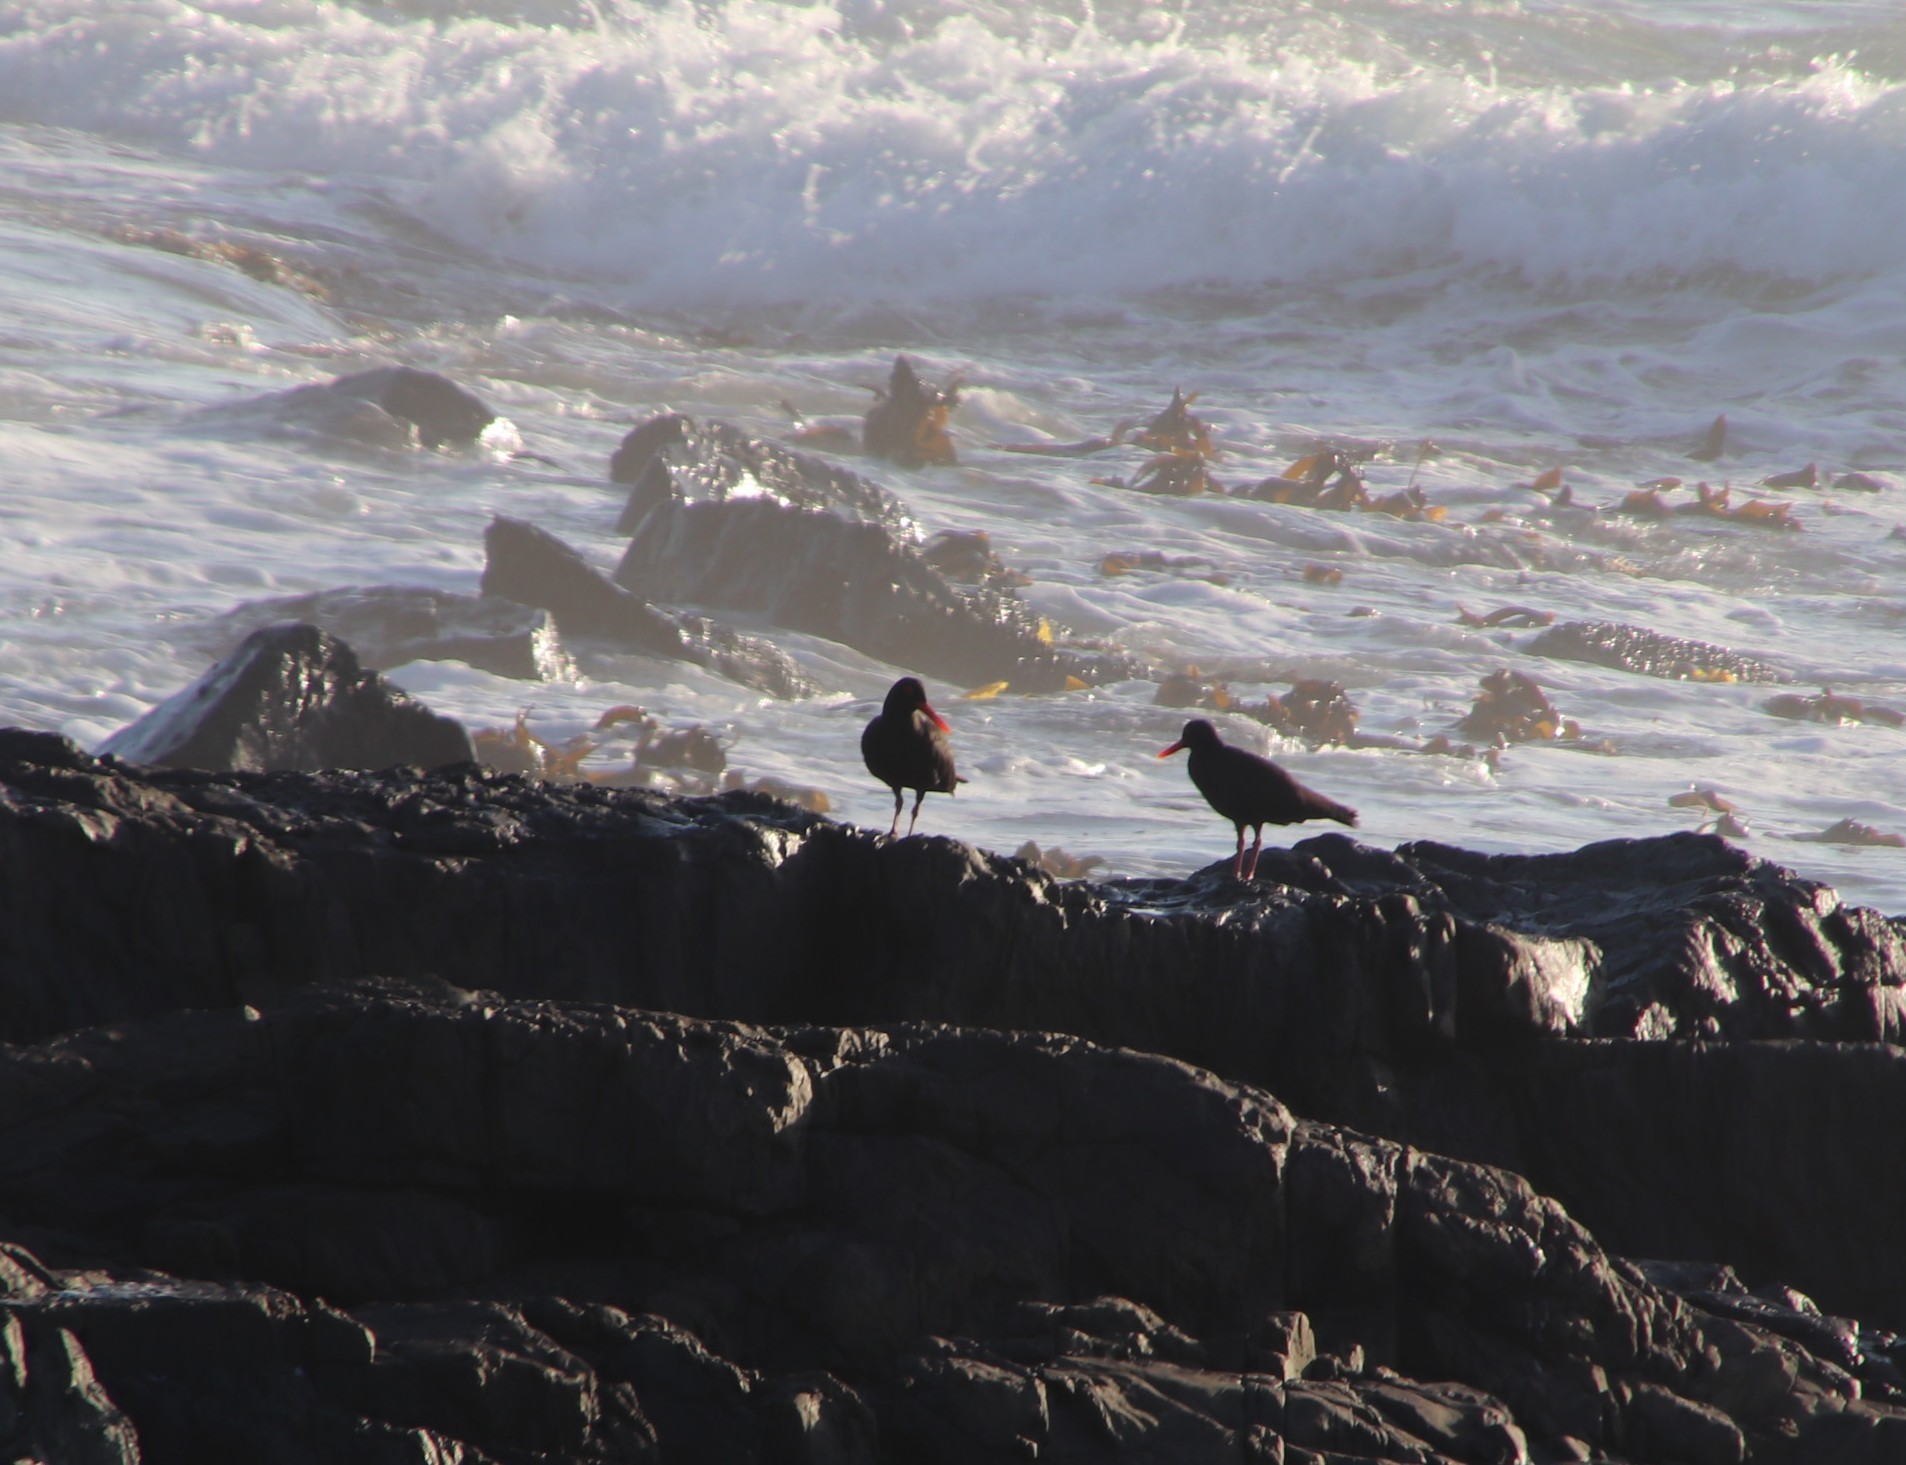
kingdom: Animalia
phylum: Chordata
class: Aves
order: Charadriiformes
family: Haematopodidae
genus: Haematopus
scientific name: Haematopus moquini
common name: African oystercatcher
